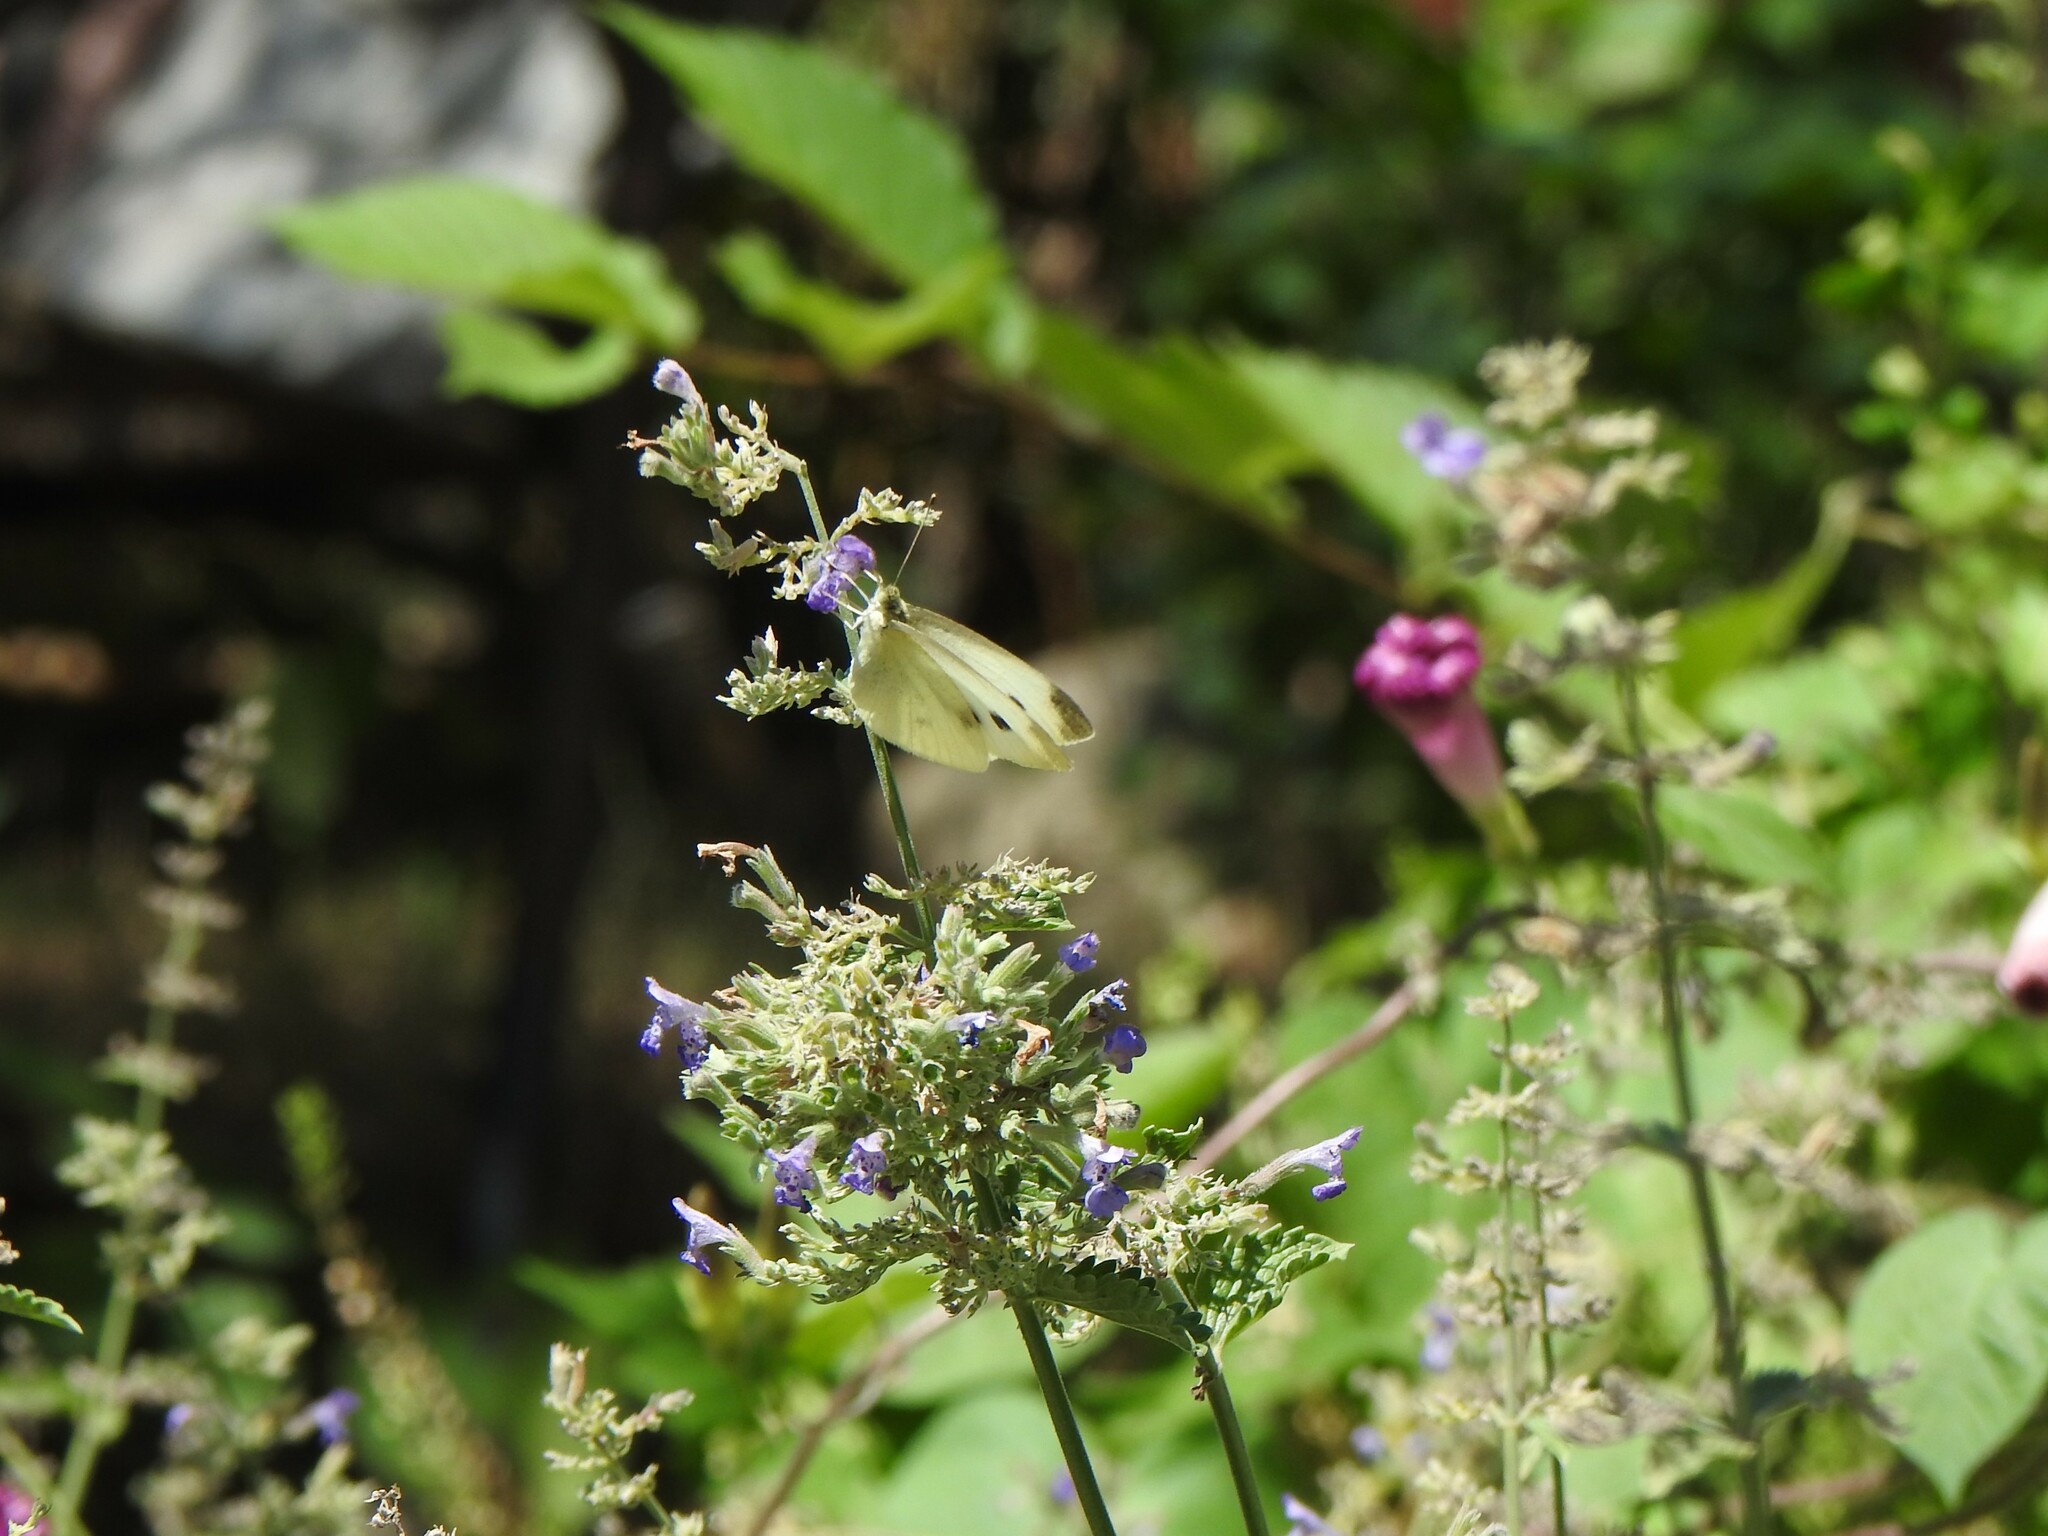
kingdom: Animalia
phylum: Arthropoda
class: Insecta
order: Lepidoptera
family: Pieridae
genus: Pieris
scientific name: Pieris rapae
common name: Small white
